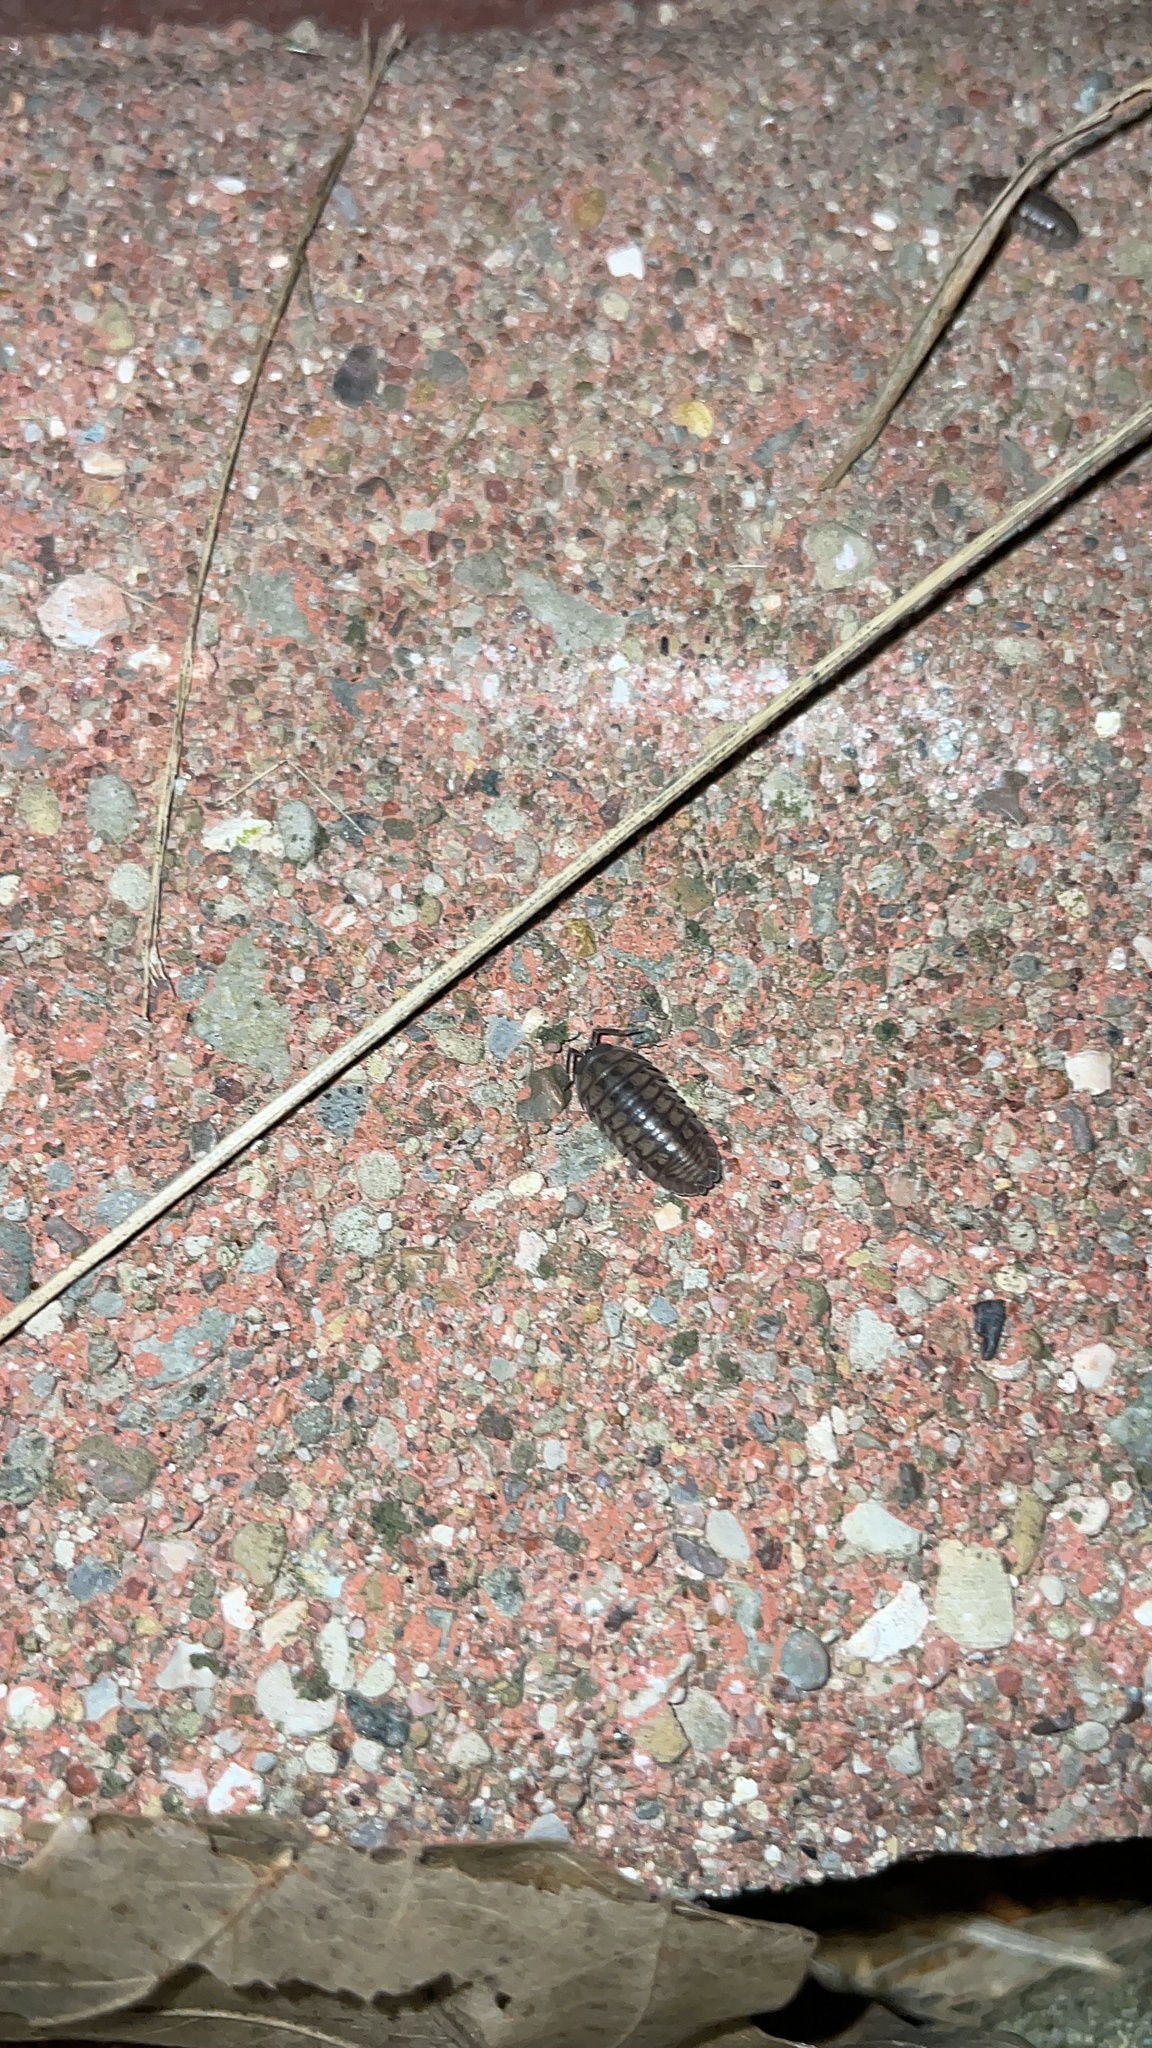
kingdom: Animalia
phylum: Arthropoda
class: Malacostraca
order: Isopoda
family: Armadillidiidae
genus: Armadillidium
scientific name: Armadillidium nasatum
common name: Isopod
